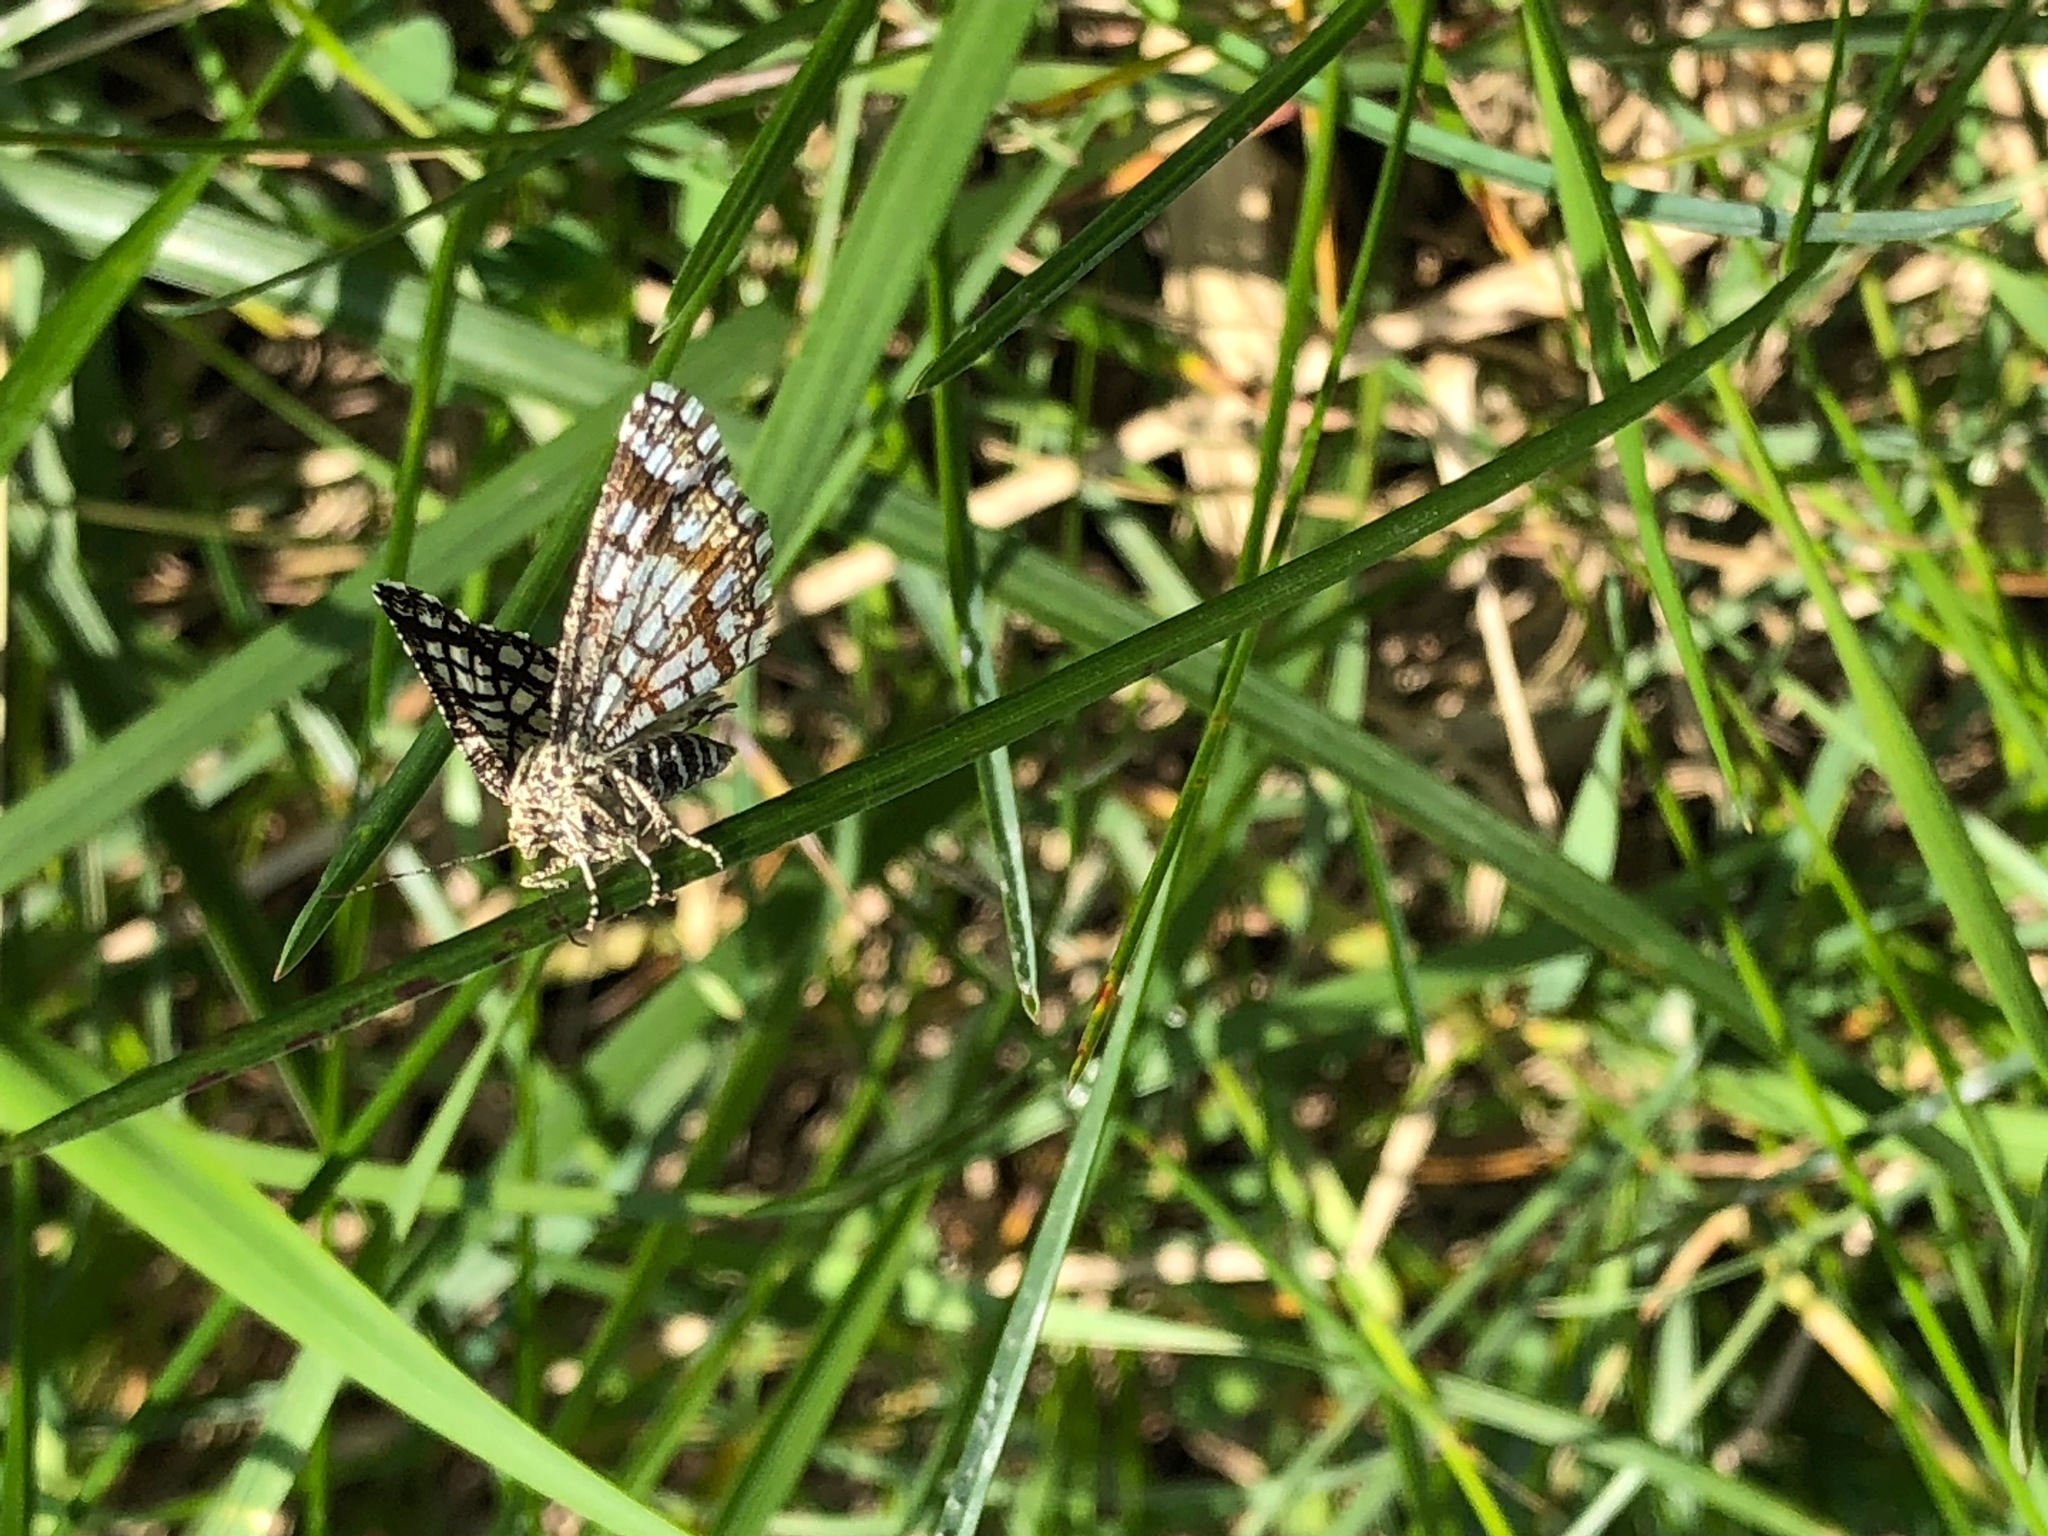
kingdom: Animalia
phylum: Arthropoda
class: Insecta
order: Lepidoptera
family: Geometridae
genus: Chiasmia
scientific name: Chiasmia clathrata
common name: Latticed heath
